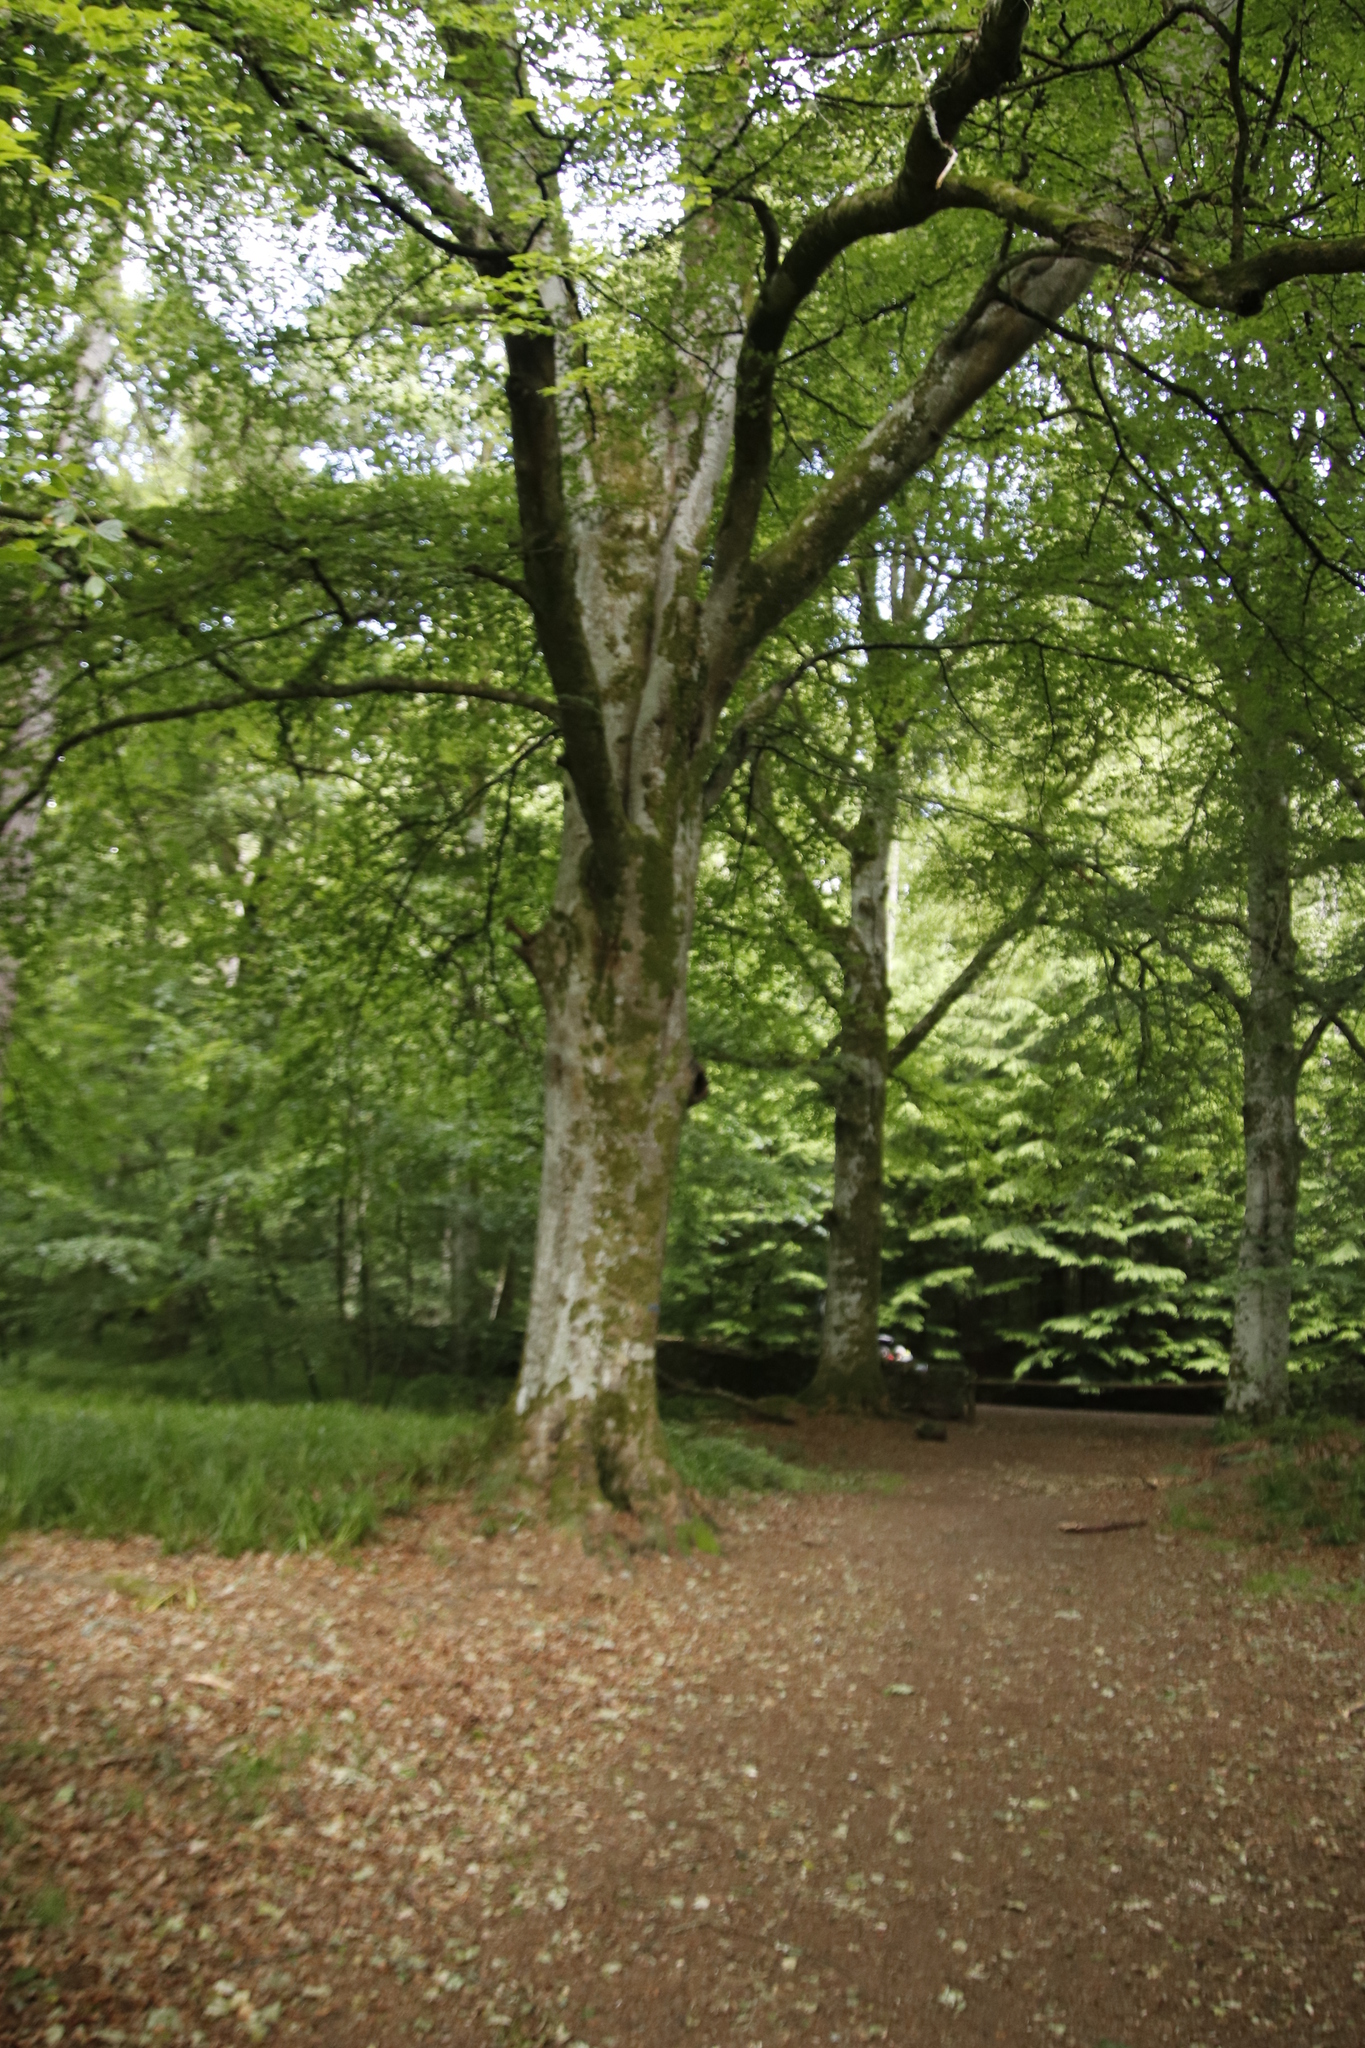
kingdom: Plantae
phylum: Tracheophyta
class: Magnoliopsida
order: Fagales
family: Fagaceae
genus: Fagus
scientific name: Fagus sylvatica
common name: Beech
